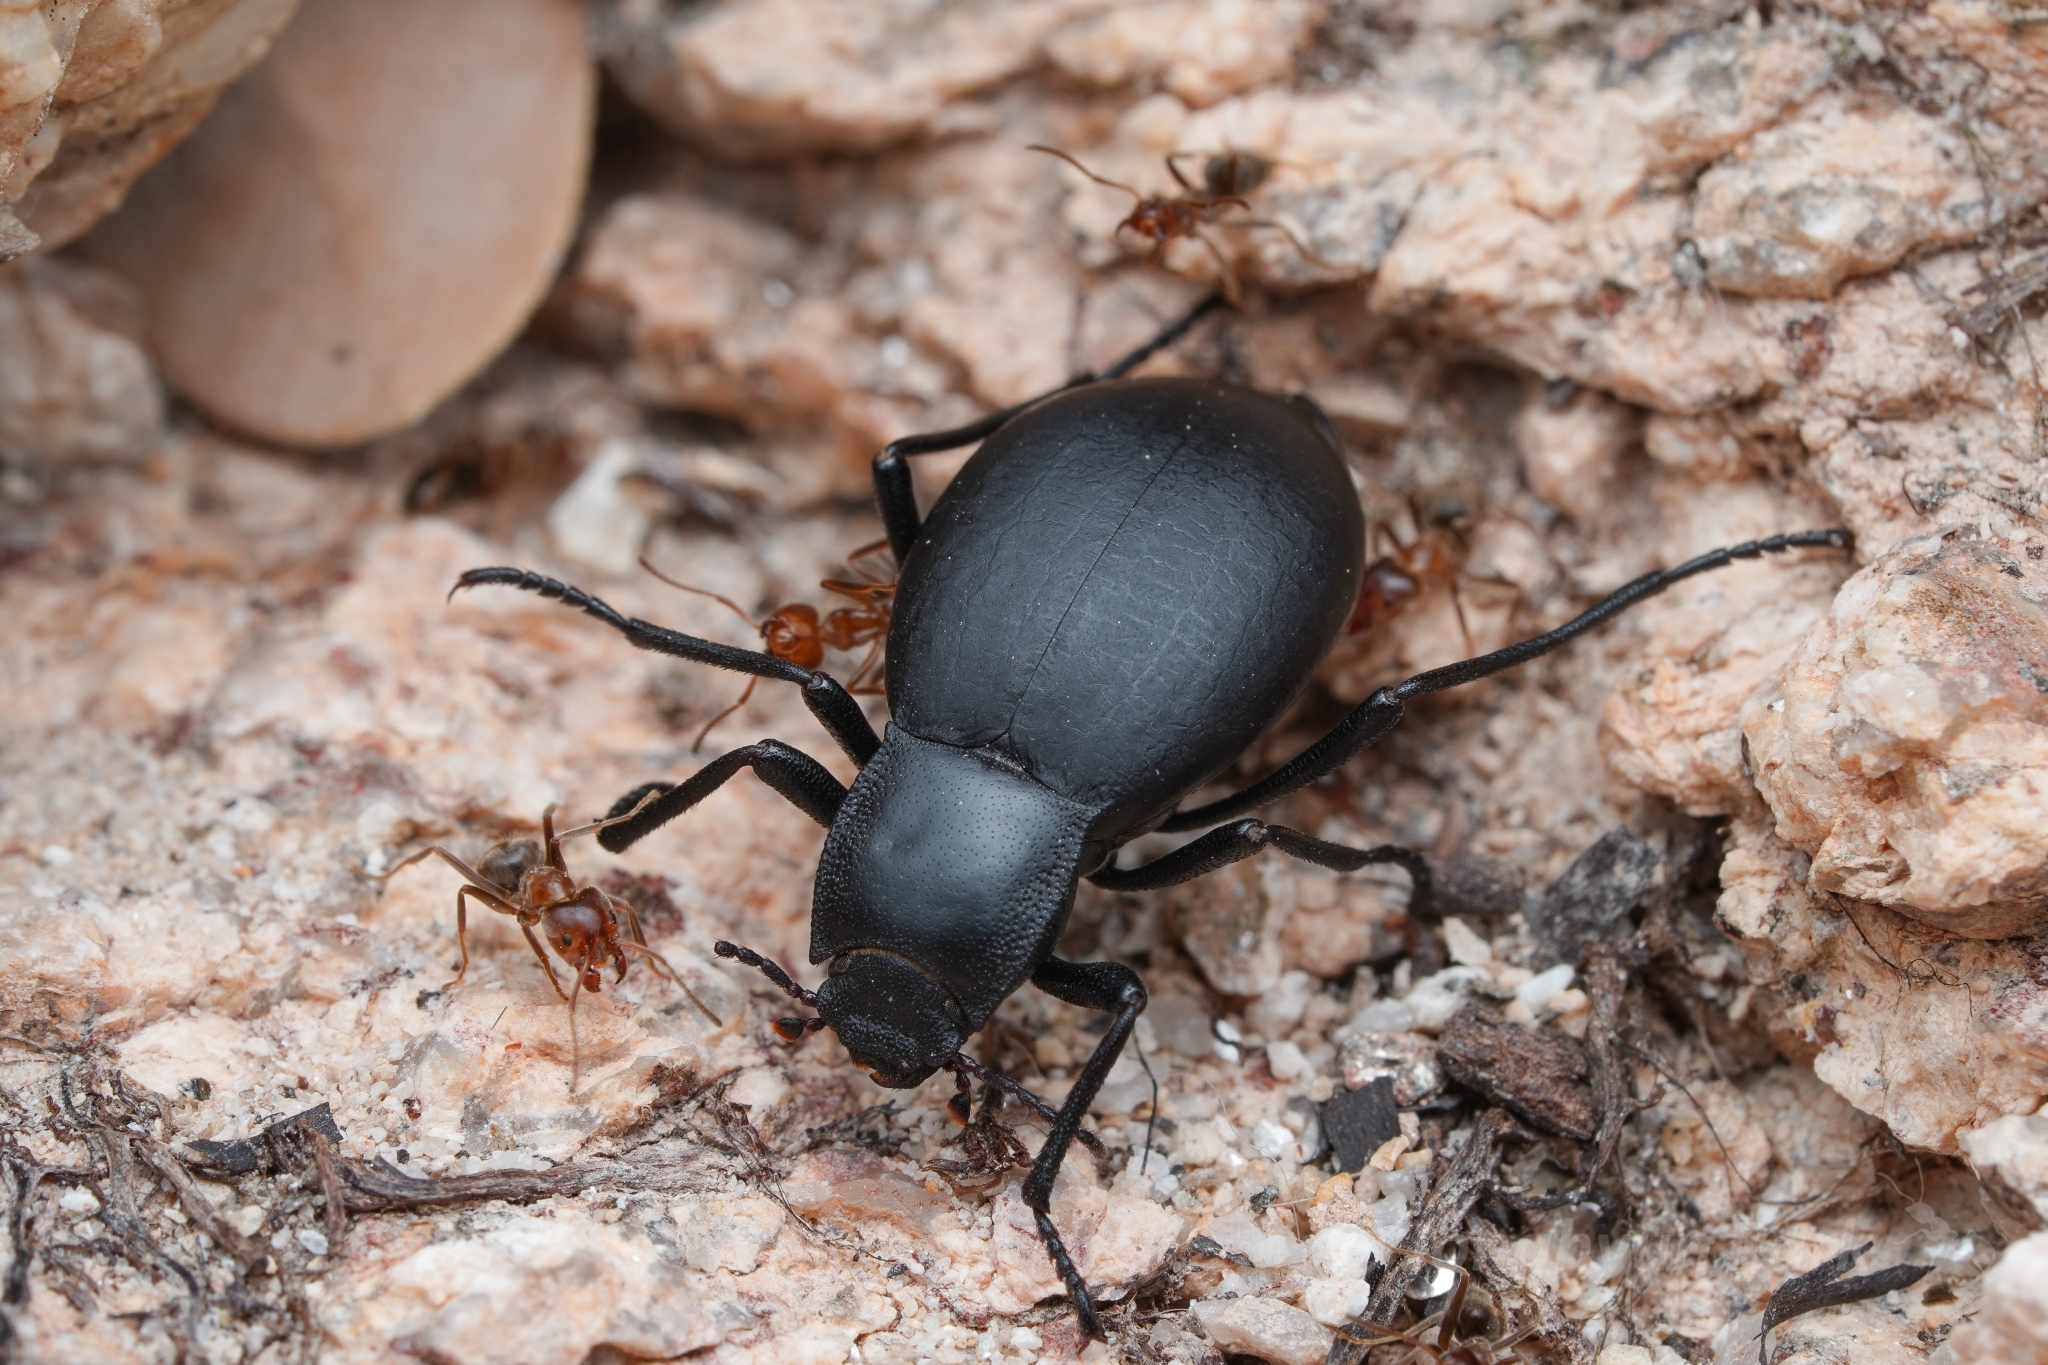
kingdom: Animalia
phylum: Arthropoda
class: Insecta
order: Hymenoptera
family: Formicidae
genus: Liometopum
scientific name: Liometopum apiculatum
